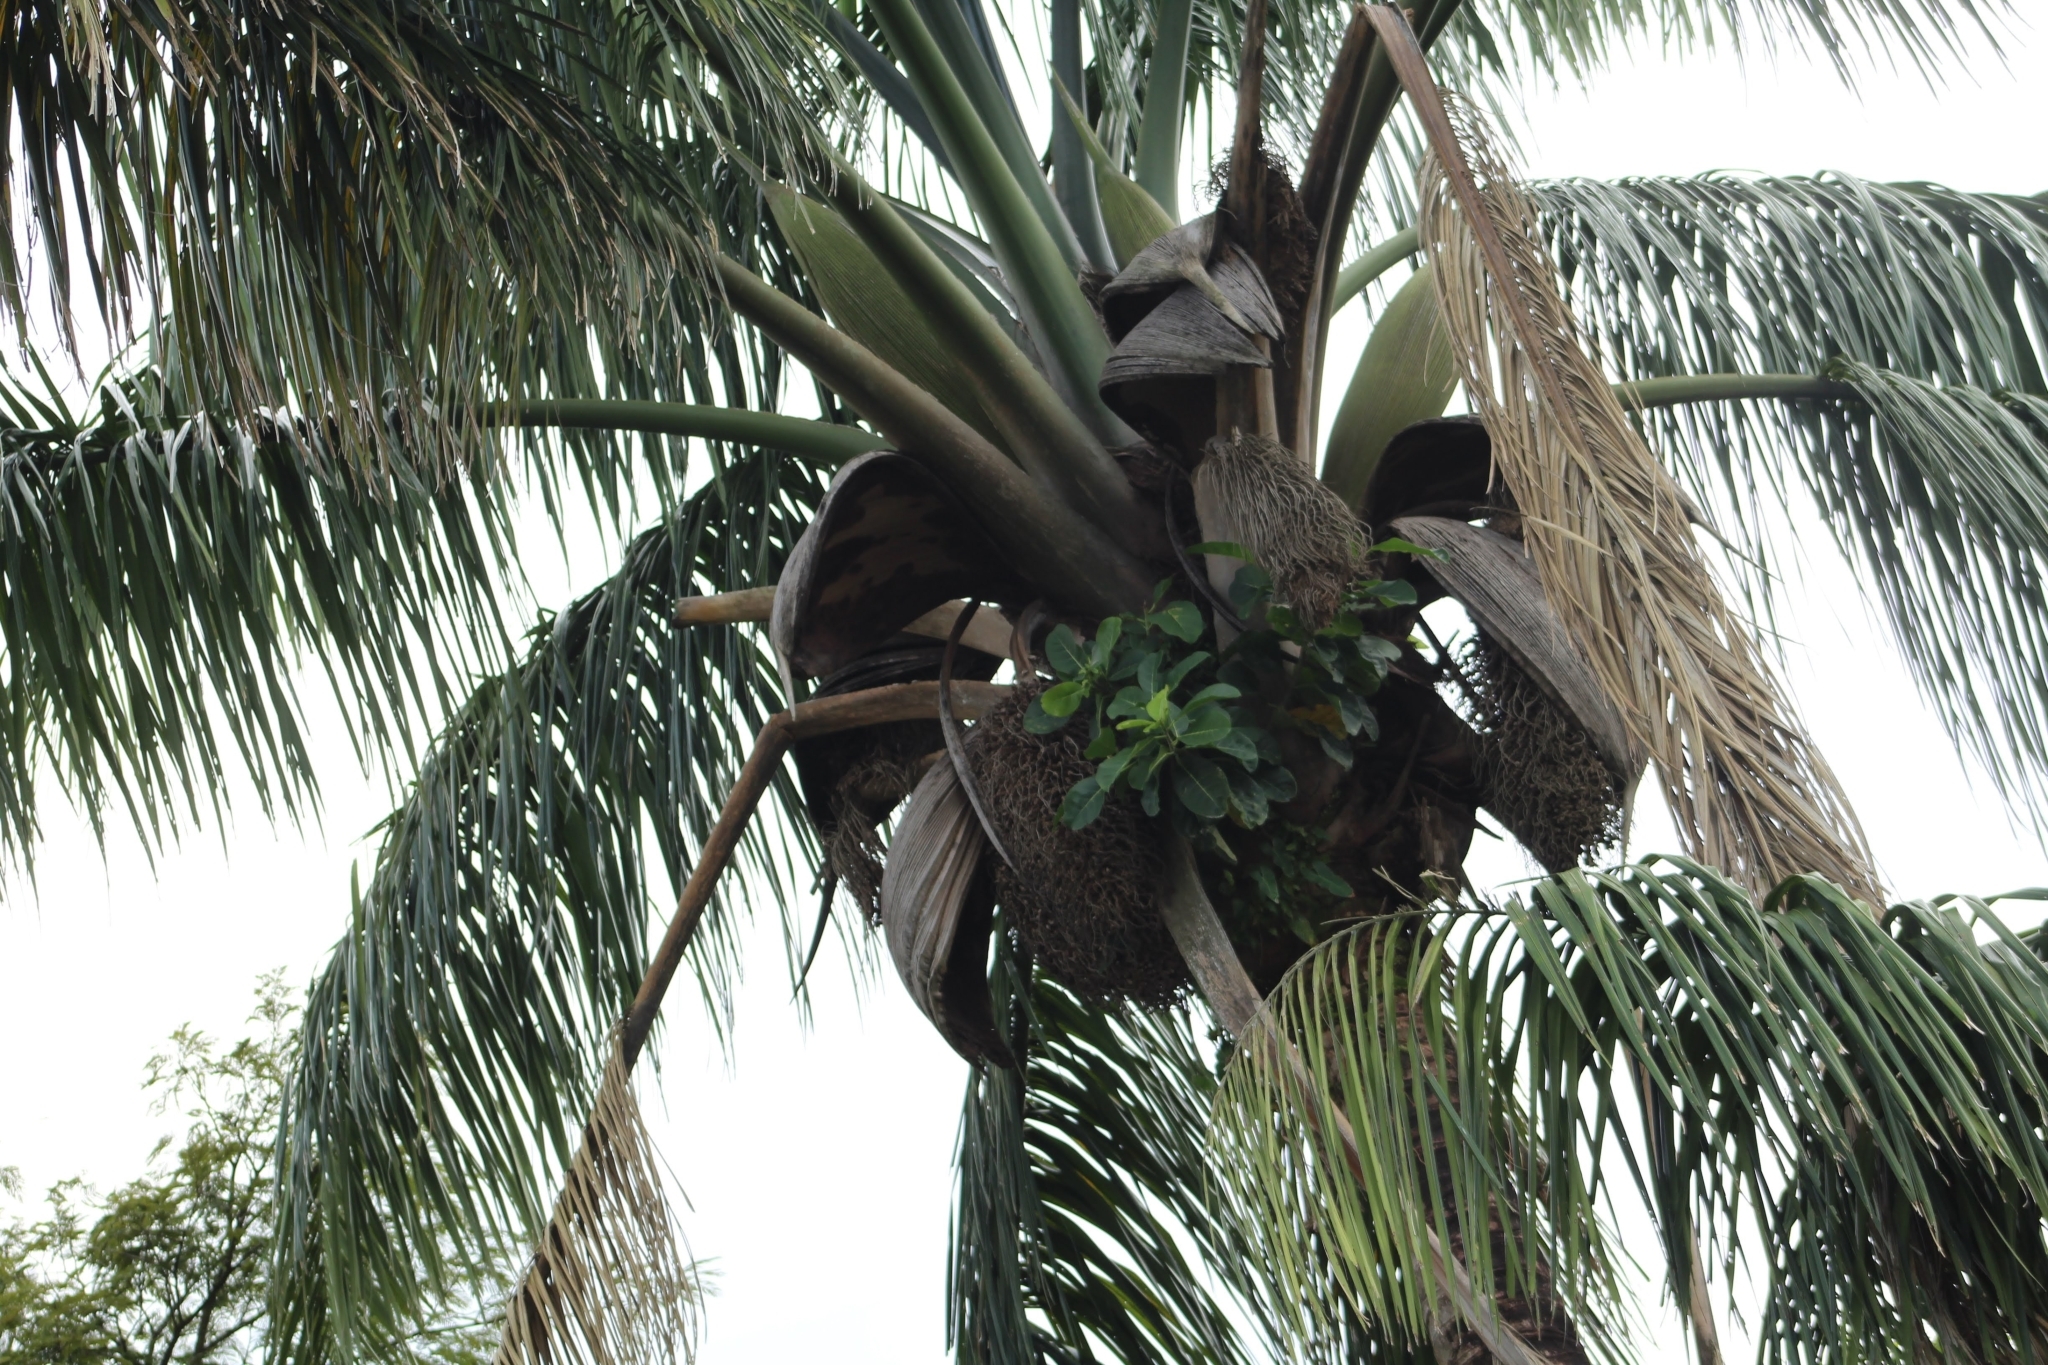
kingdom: Plantae
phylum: Tracheophyta
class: Liliopsida
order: Arecales
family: Arecaceae
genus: Attalea
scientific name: Attalea maripa
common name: Maripa palm
